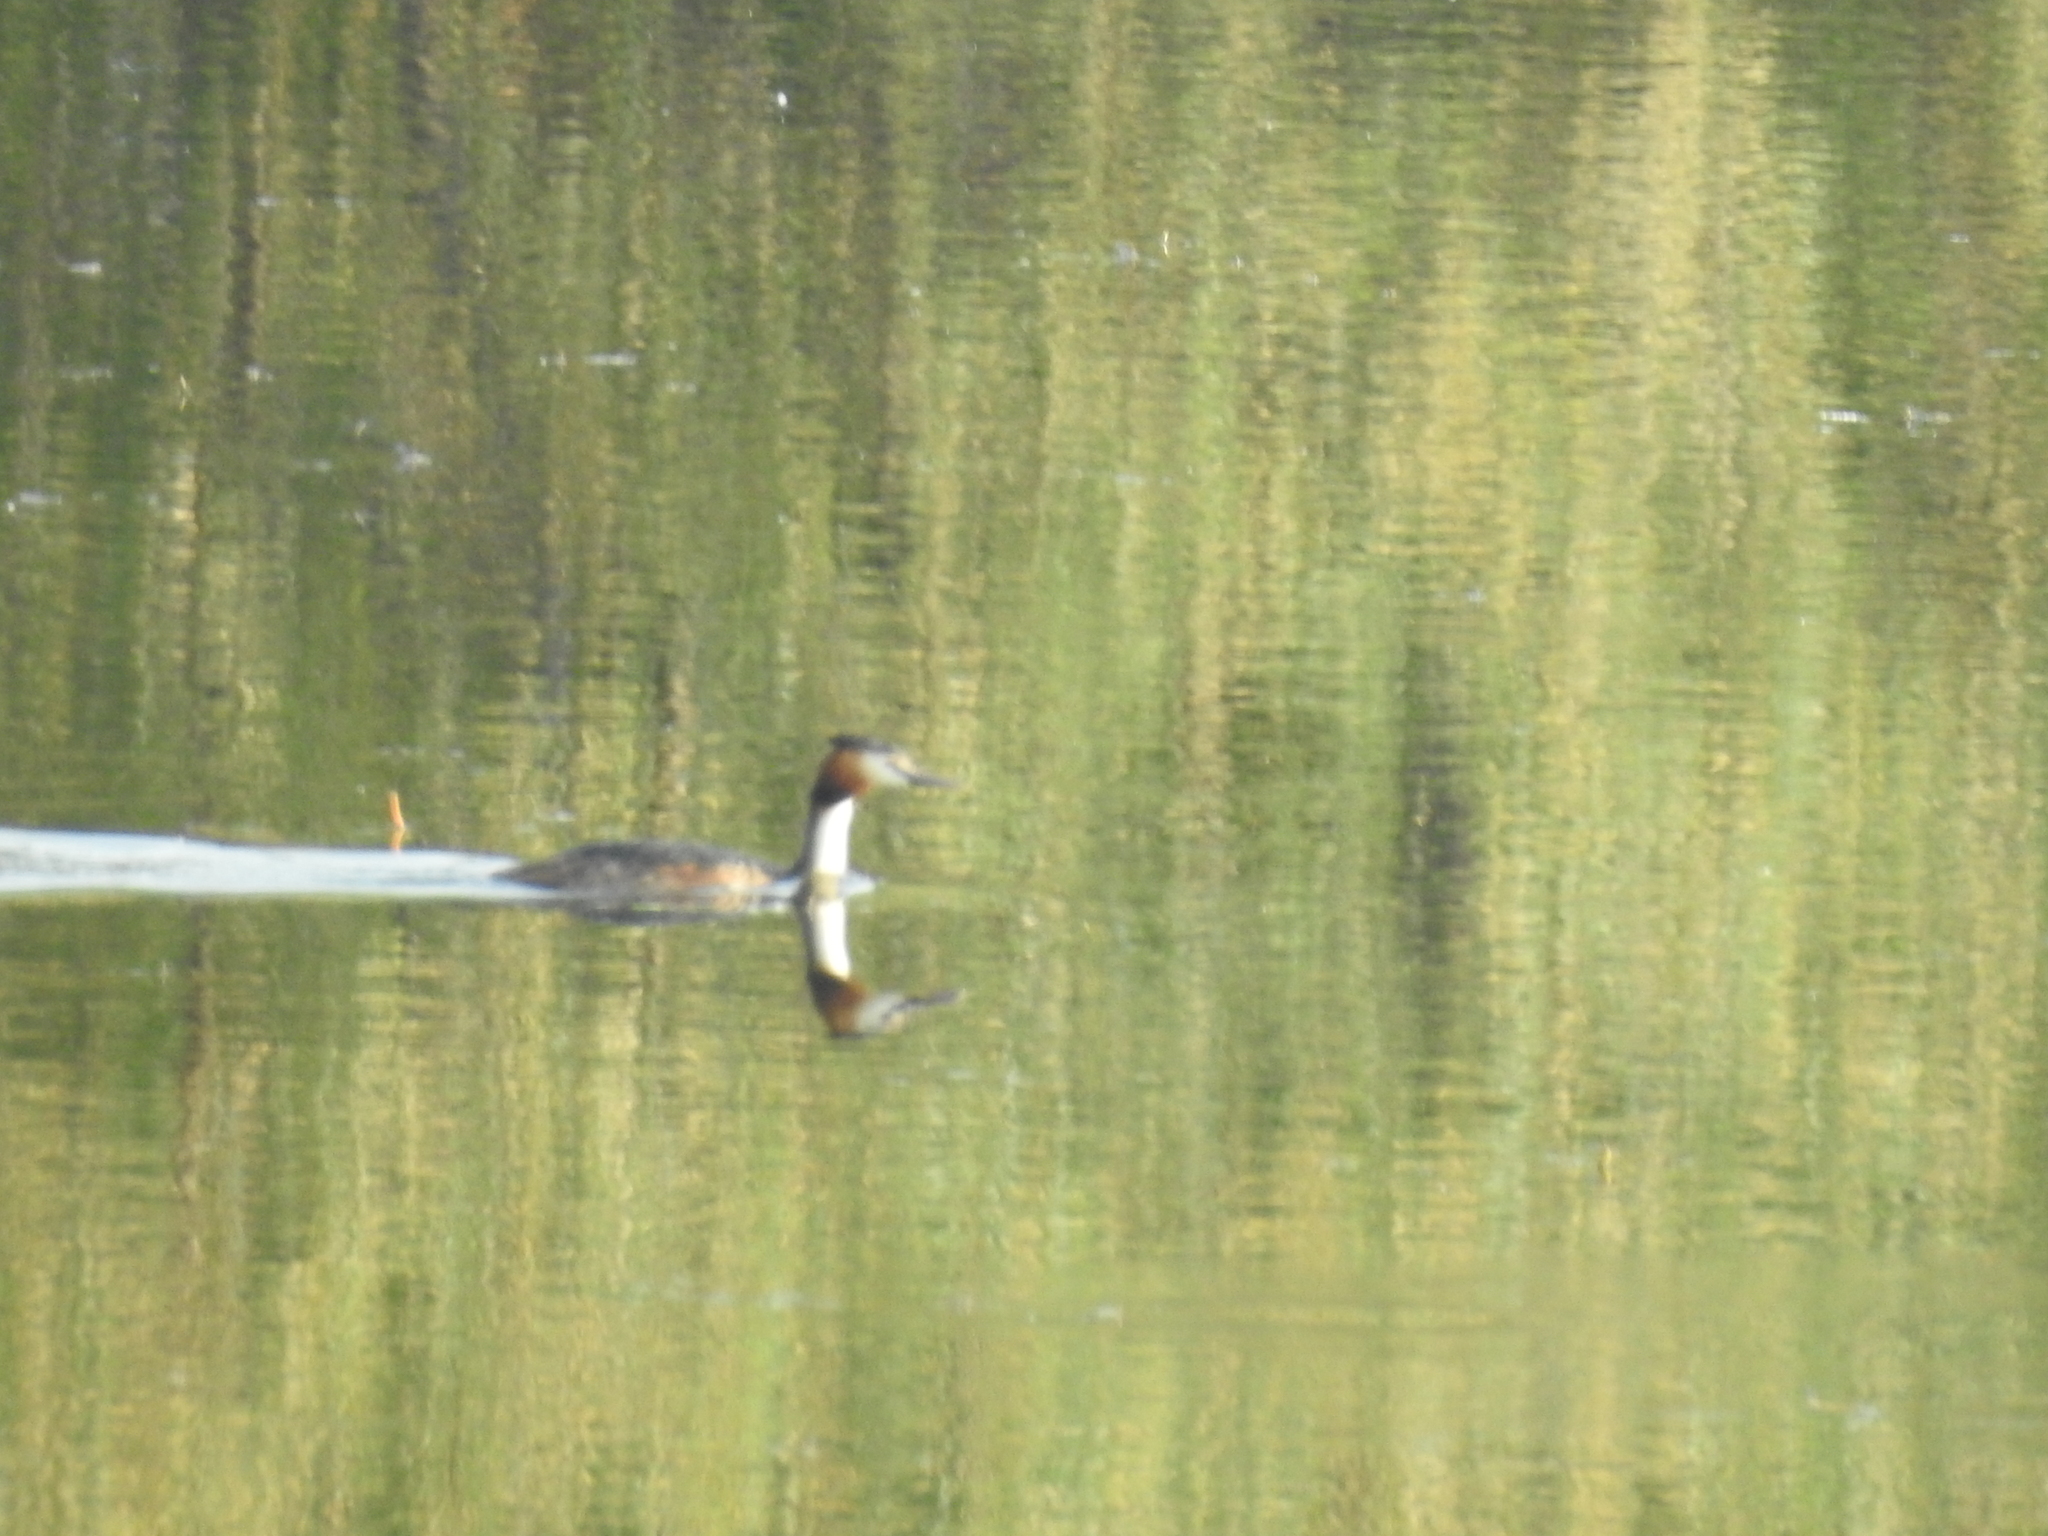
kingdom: Animalia
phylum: Chordata
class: Aves
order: Podicipediformes
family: Podicipedidae
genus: Podiceps
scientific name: Podiceps cristatus
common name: Great crested grebe
